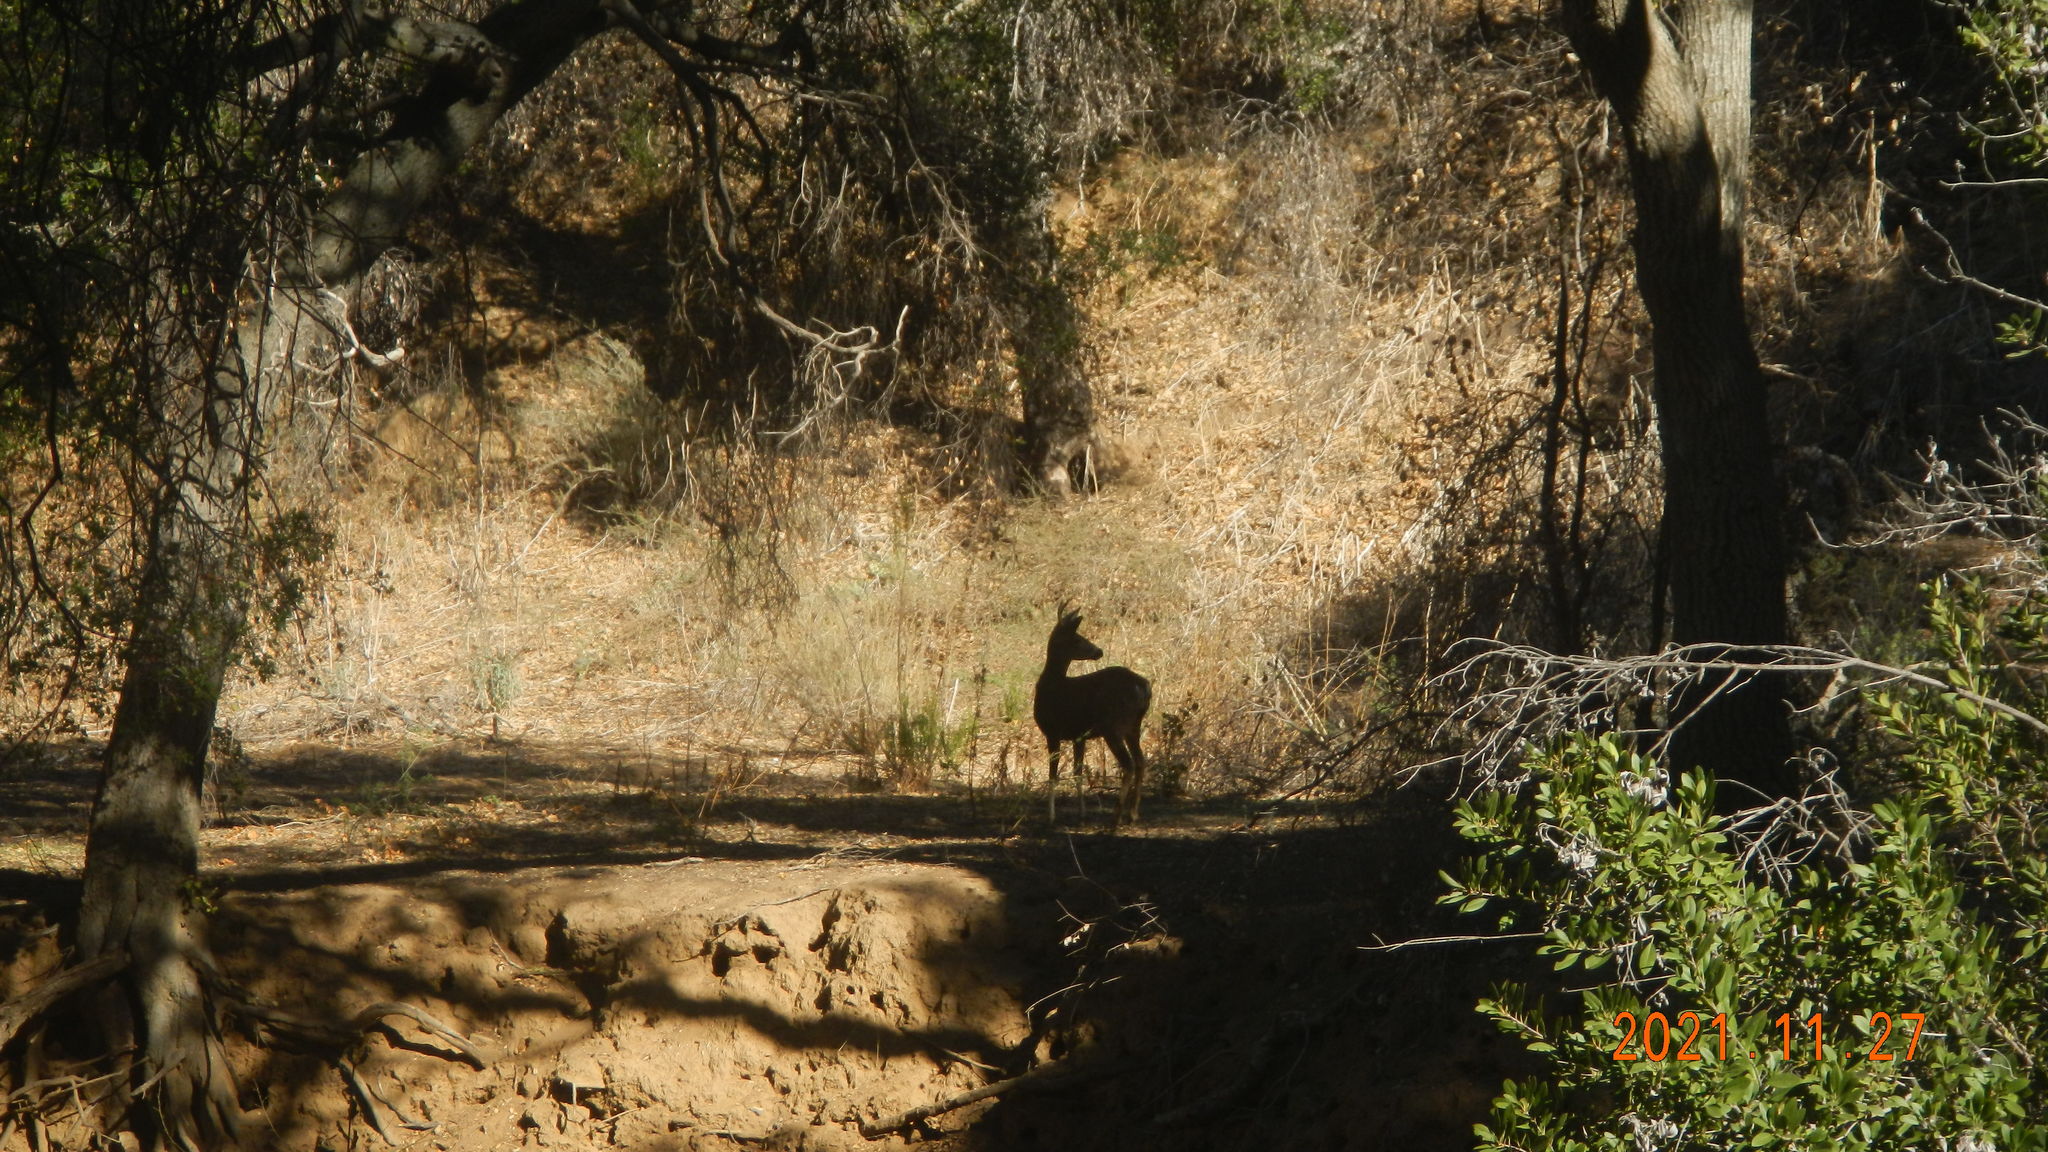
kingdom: Animalia
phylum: Chordata
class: Mammalia
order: Artiodactyla
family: Cervidae
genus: Odocoileus
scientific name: Odocoileus hemionus
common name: Mule deer
